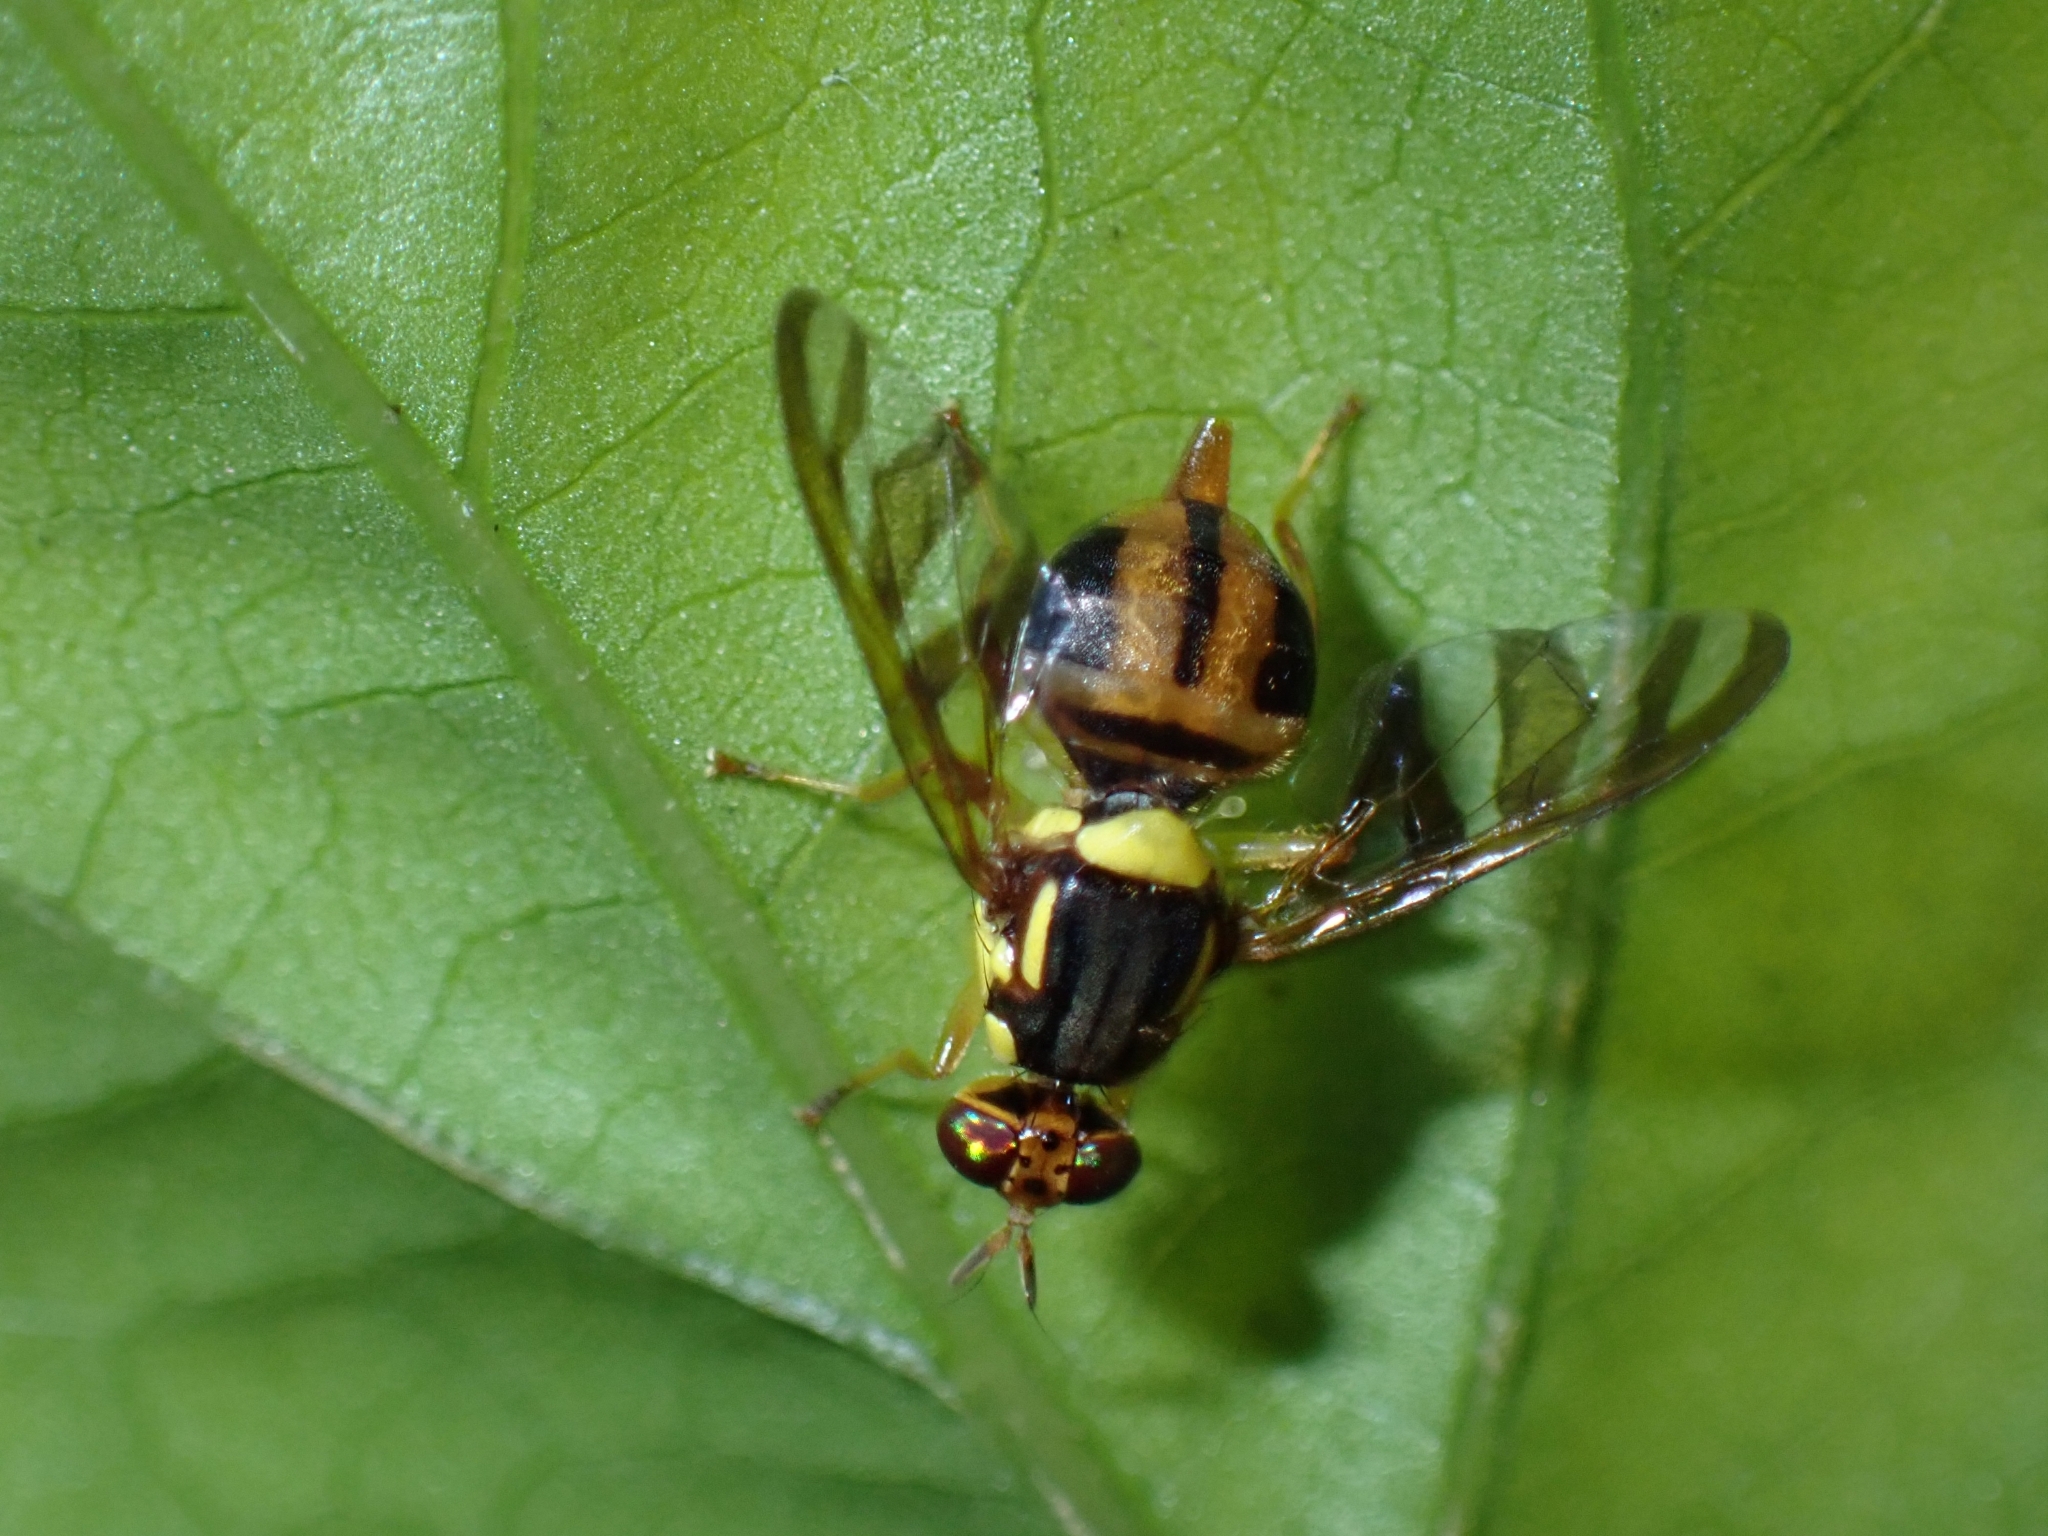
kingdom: Animalia
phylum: Arthropoda
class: Insecta
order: Diptera
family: Tephritidae
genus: Bactrocera
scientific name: Bactrocera umbrosa
